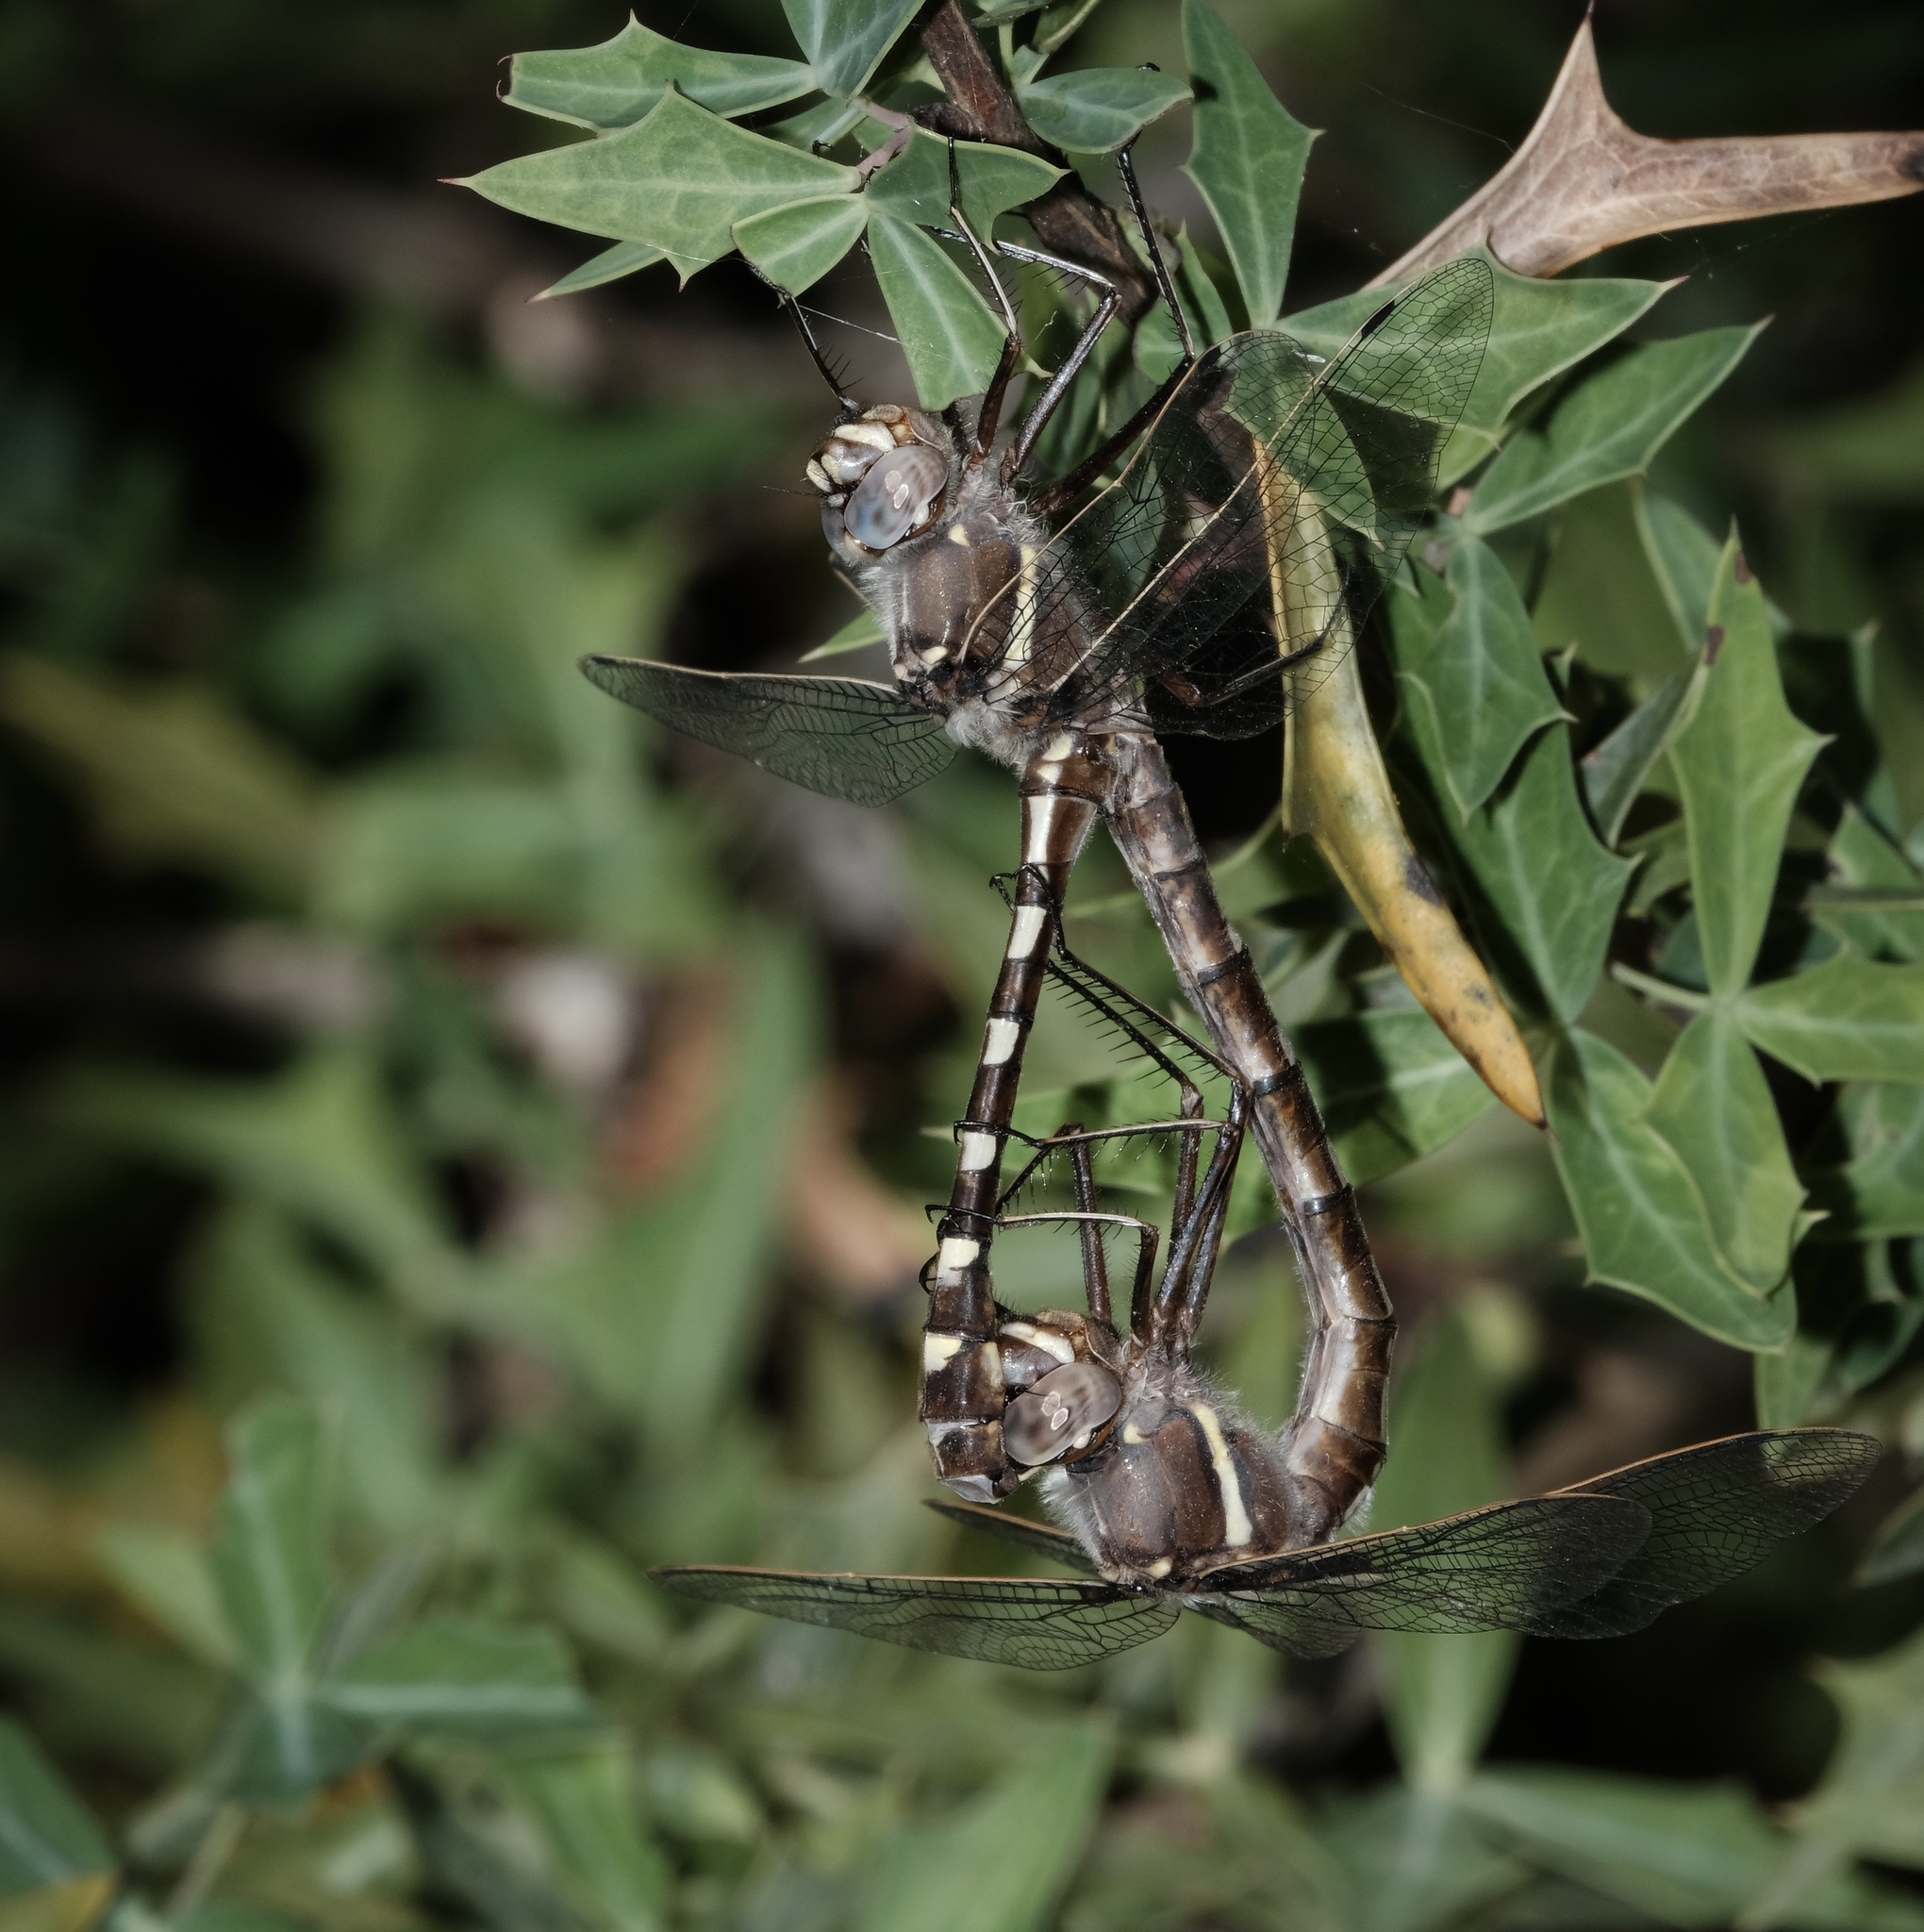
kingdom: Animalia
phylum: Arthropoda
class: Insecta
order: Odonata
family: Macromiidae
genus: Didymops
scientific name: Didymops transversa
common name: Stream cruiser
